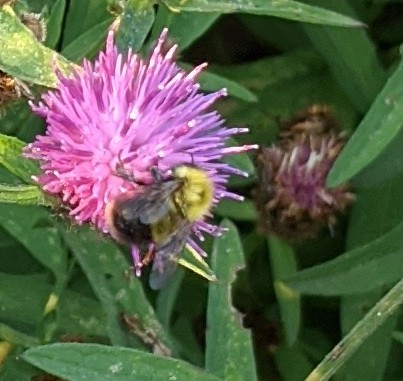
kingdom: Animalia
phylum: Arthropoda
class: Insecta
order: Hymenoptera
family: Apidae
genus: Bombus
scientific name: Bombus perplexus
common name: Confusing bumble bee
